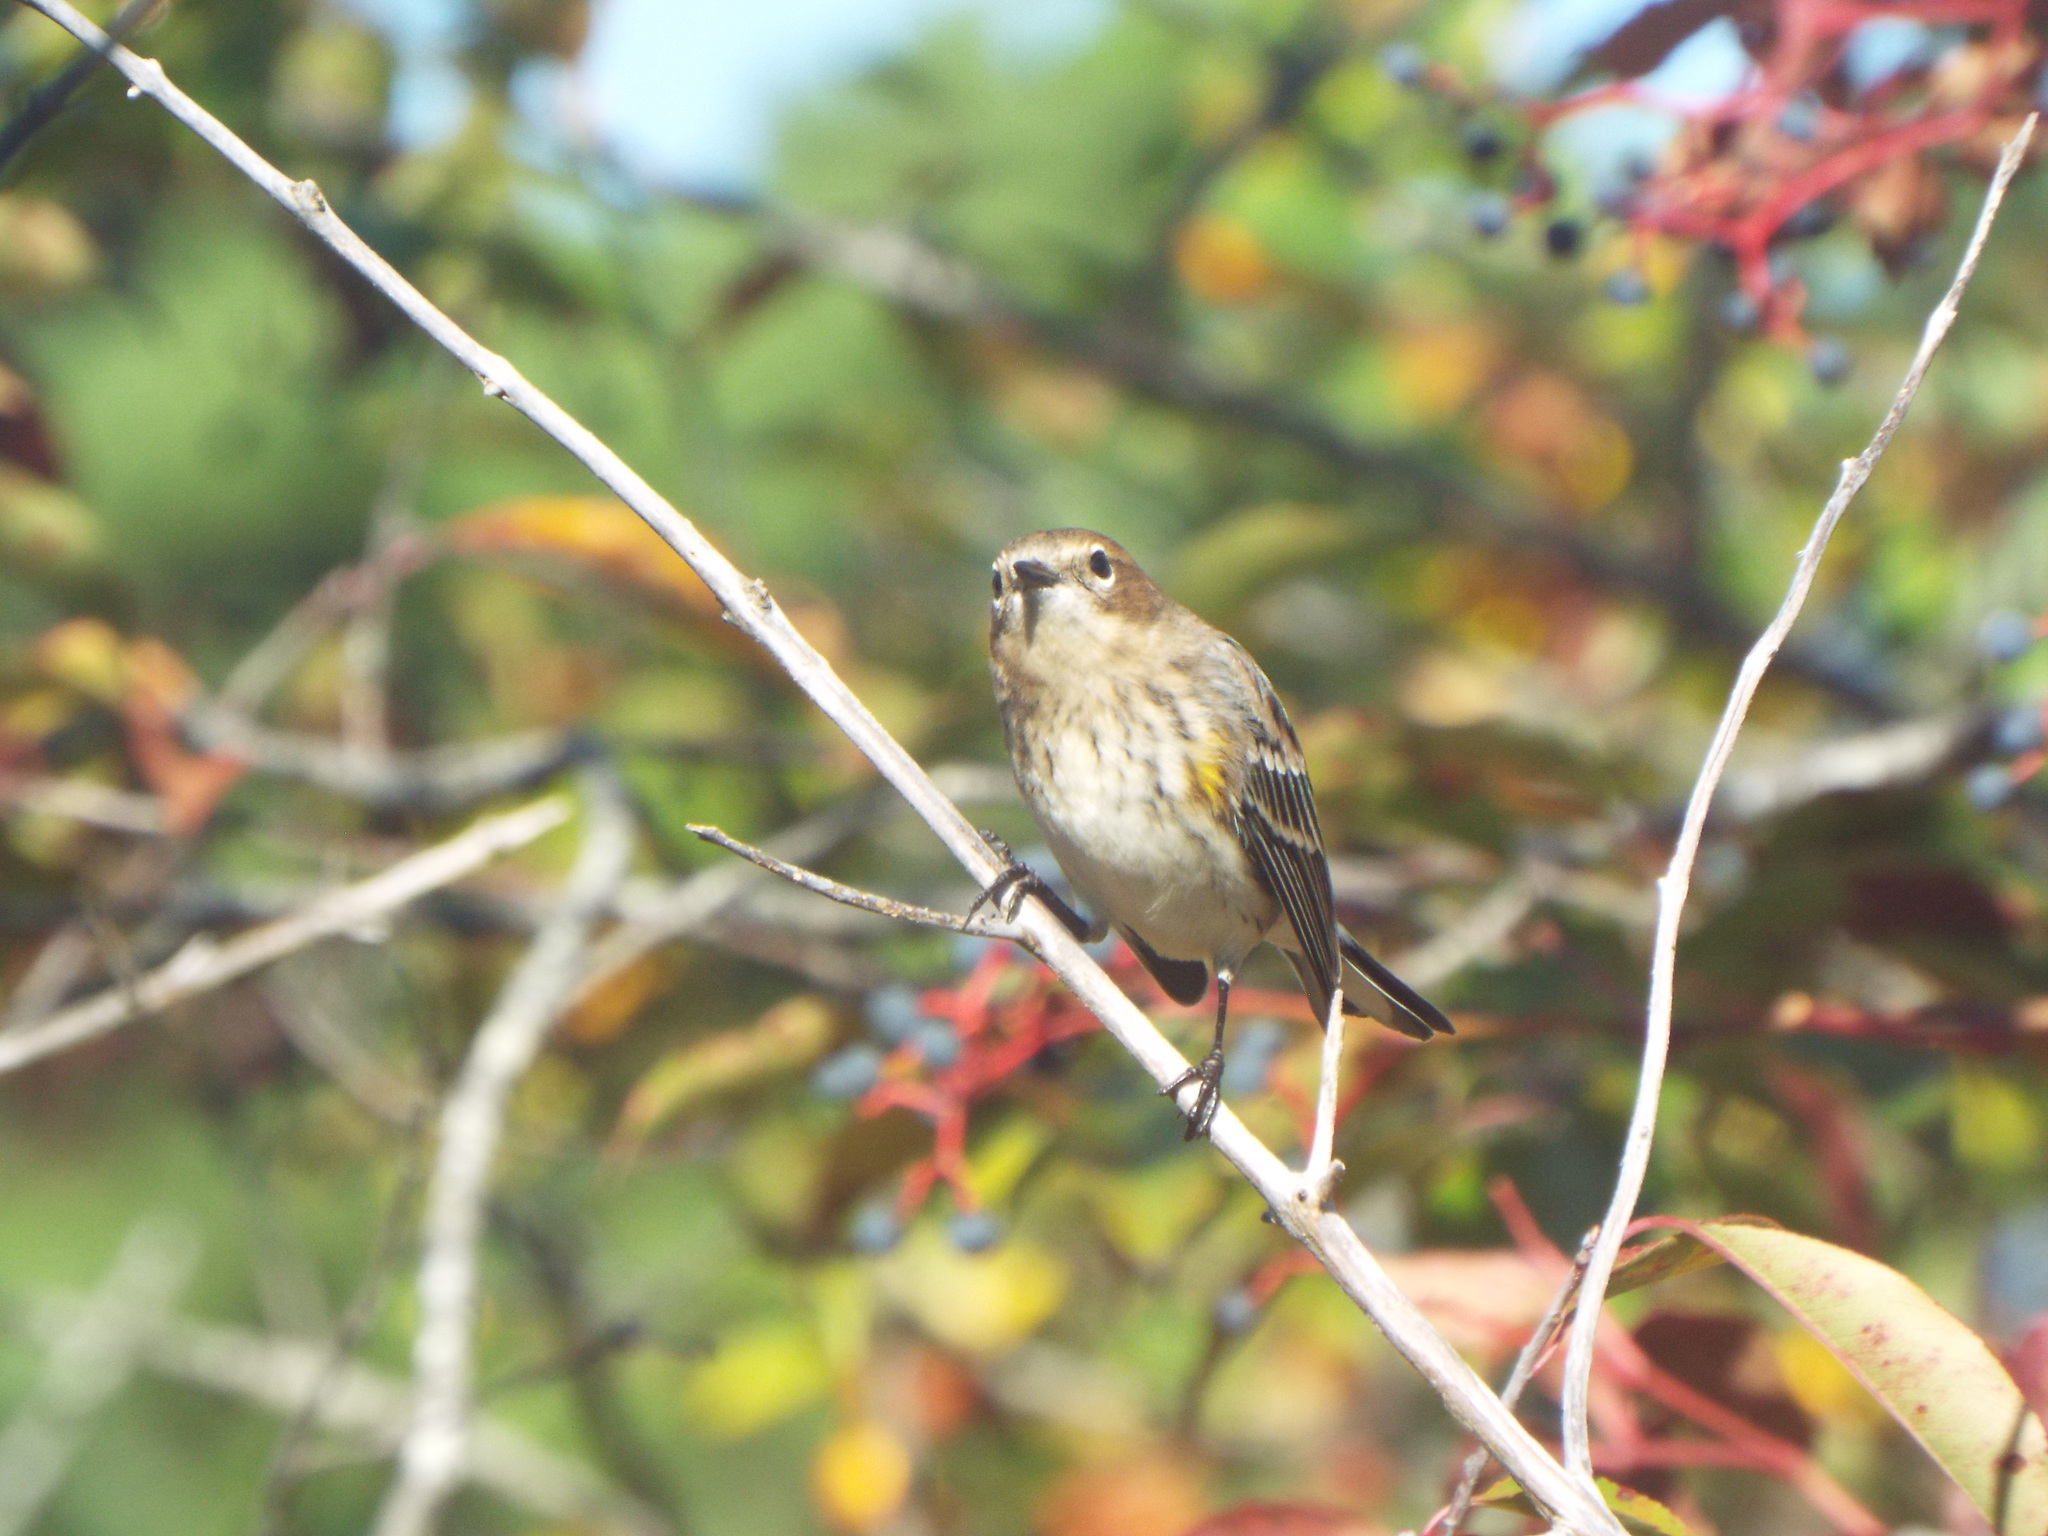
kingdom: Animalia
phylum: Chordata
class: Aves
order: Passeriformes
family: Parulidae
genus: Setophaga
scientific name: Setophaga coronata
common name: Myrtle warbler
